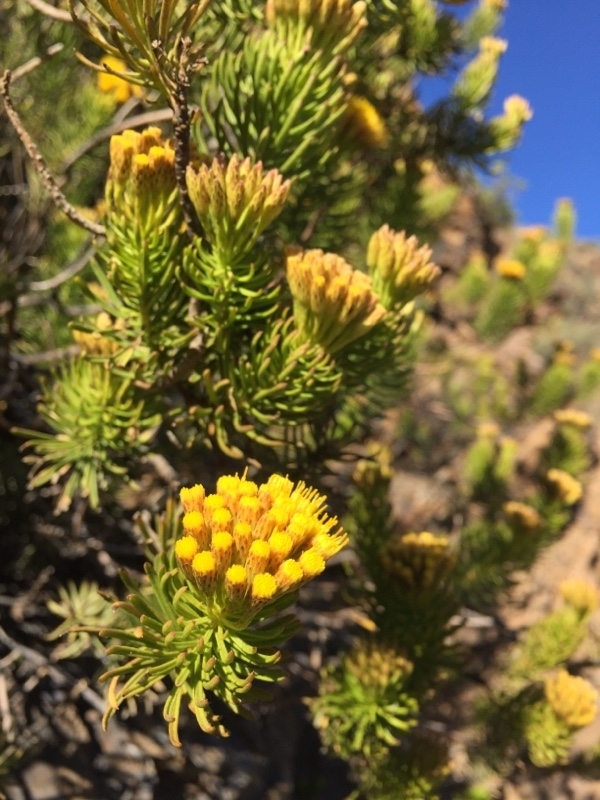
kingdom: Plantae
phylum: Tracheophyta
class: Magnoliopsida
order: Asterales
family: Asteraceae
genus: Allagopappus
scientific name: Allagopappus canariensis
